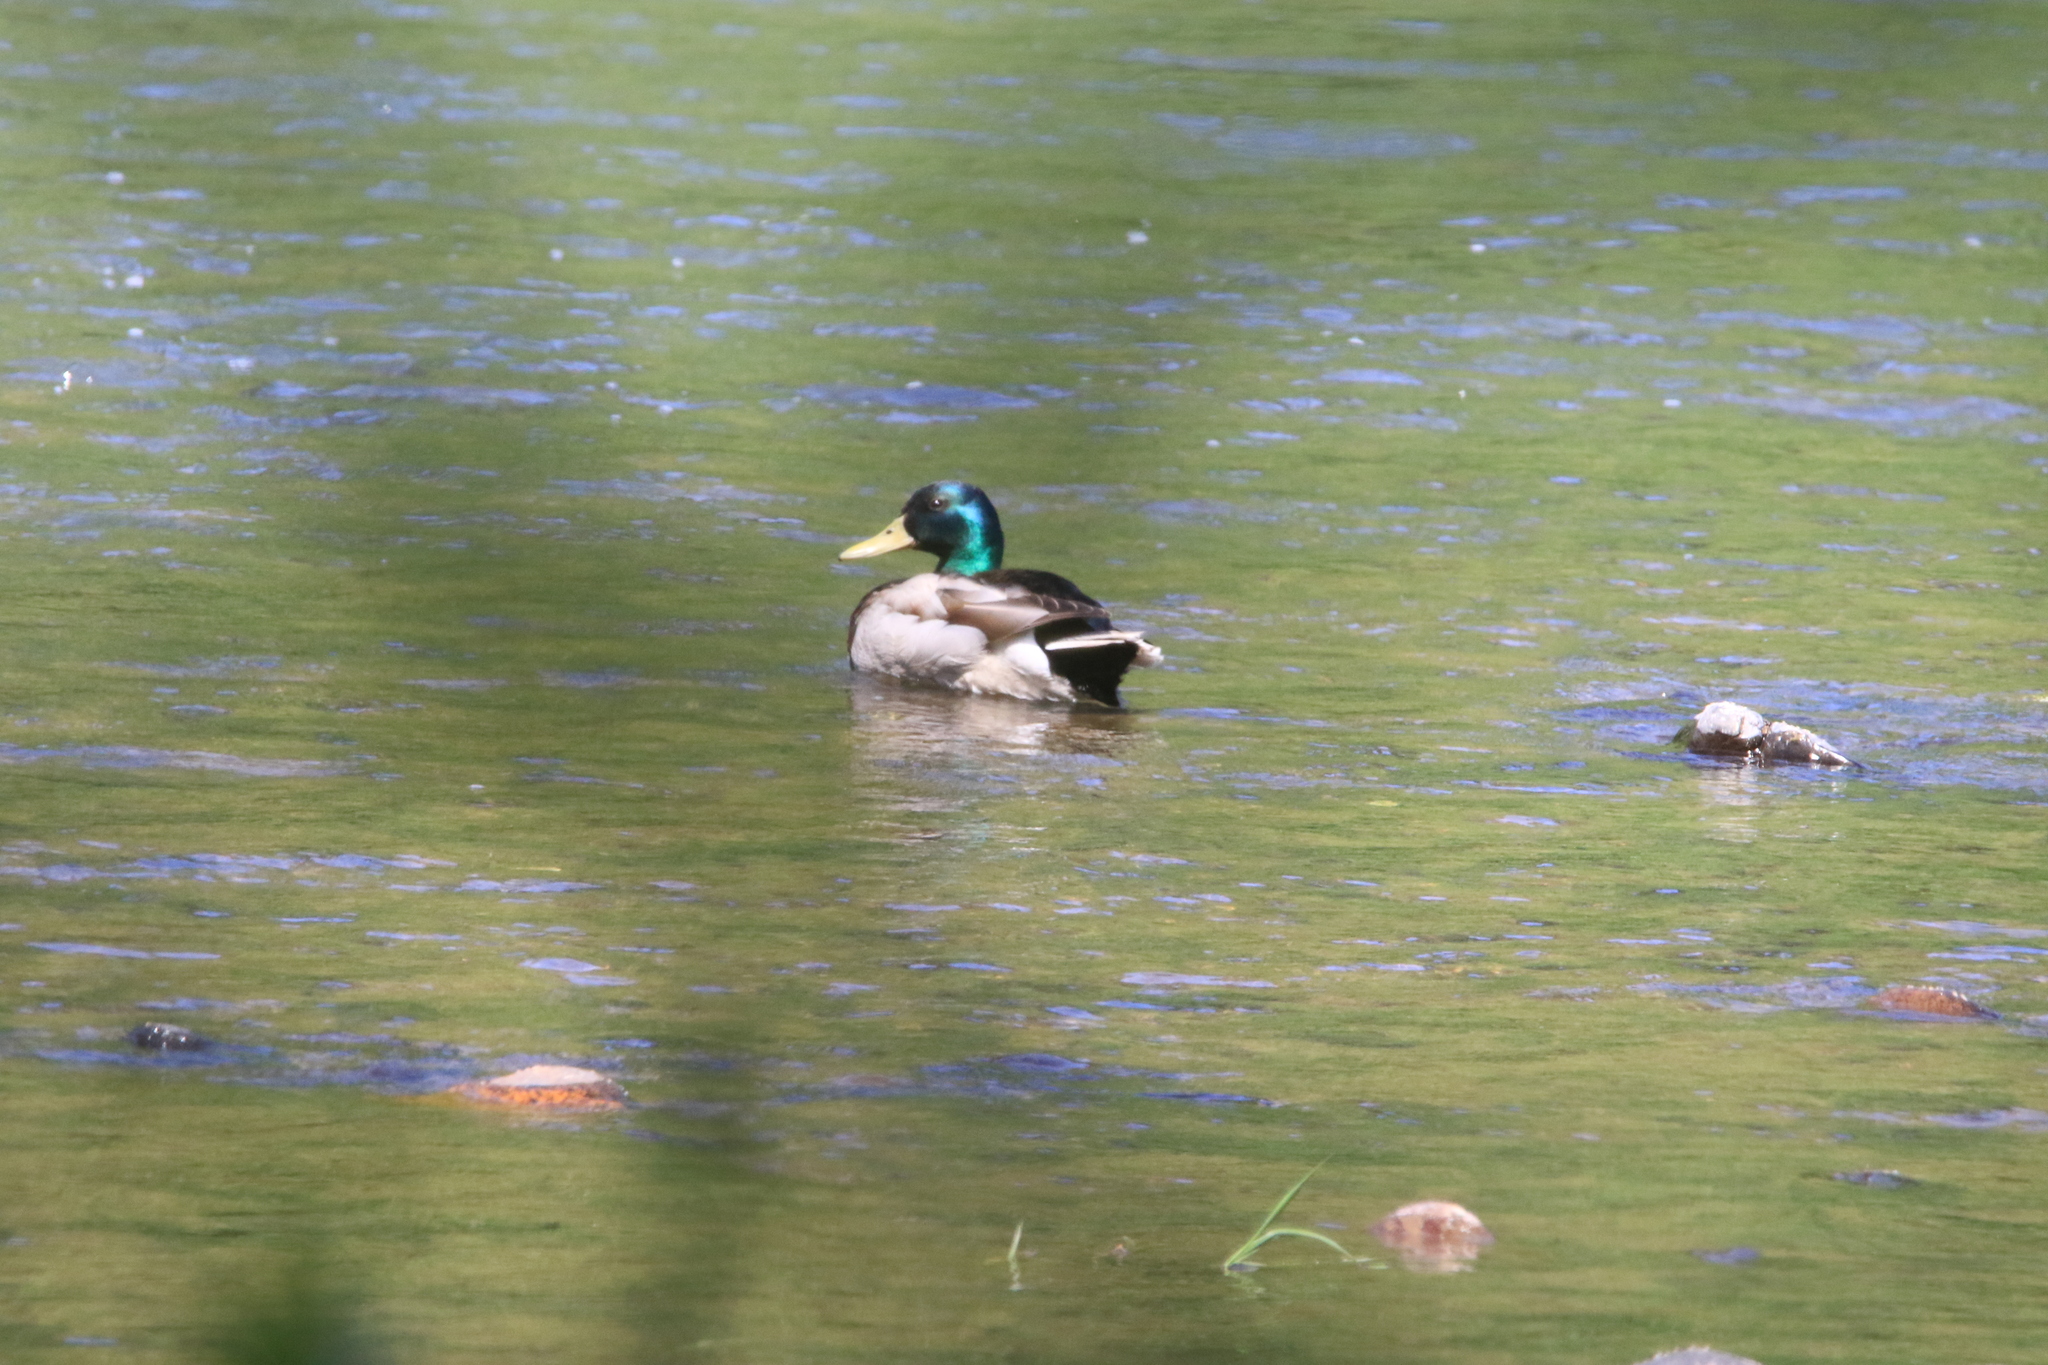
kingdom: Animalia
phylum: Chordata
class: Aves
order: Anseriformes
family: Anatidae
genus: Anas
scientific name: Anas platyrhynchos
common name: Mallard
